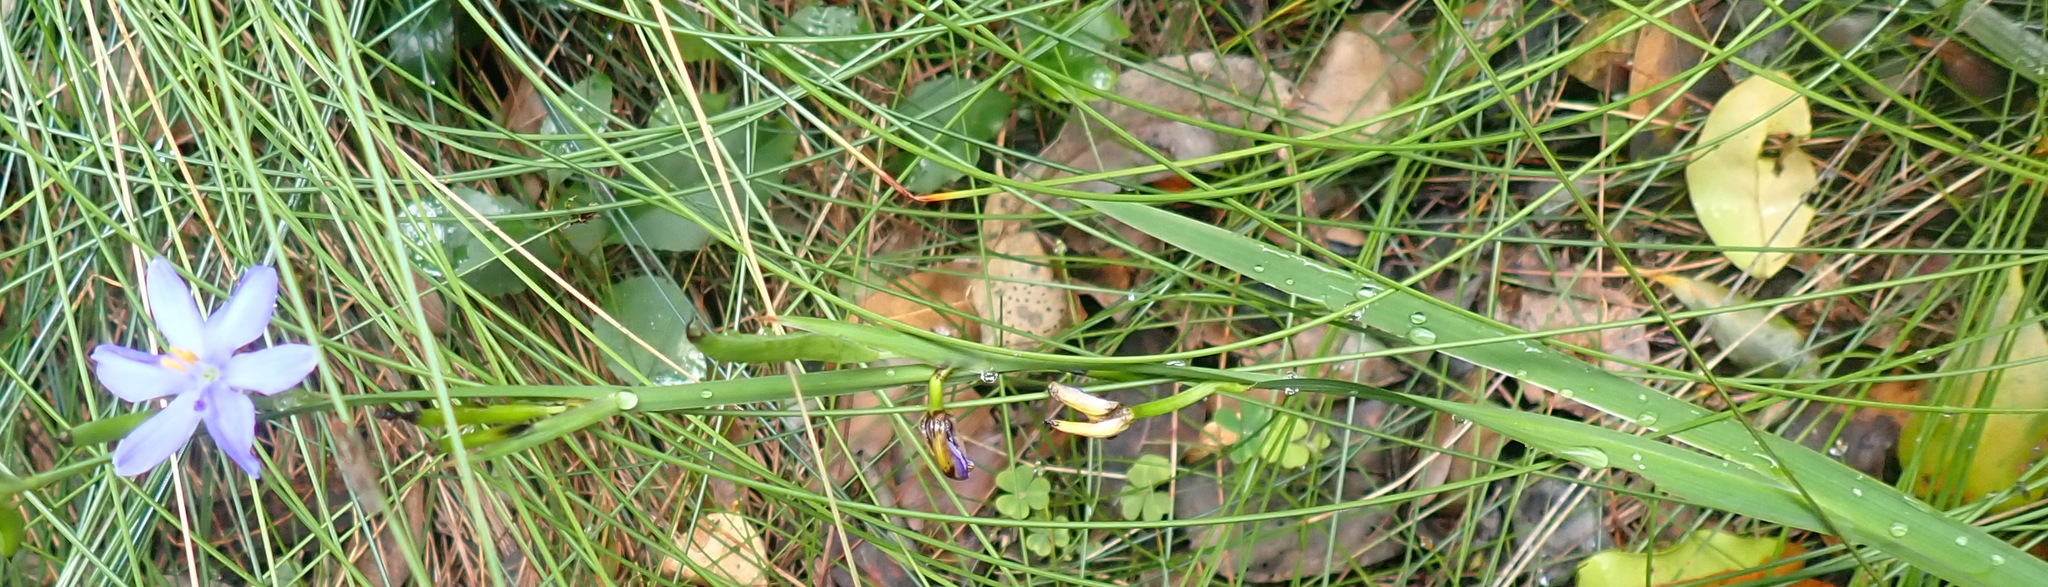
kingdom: Plantae
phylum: Tracheophyta
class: Liliopsida
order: Asparagales
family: Iridaceae
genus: Aristea
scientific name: Aristea ensifolia
